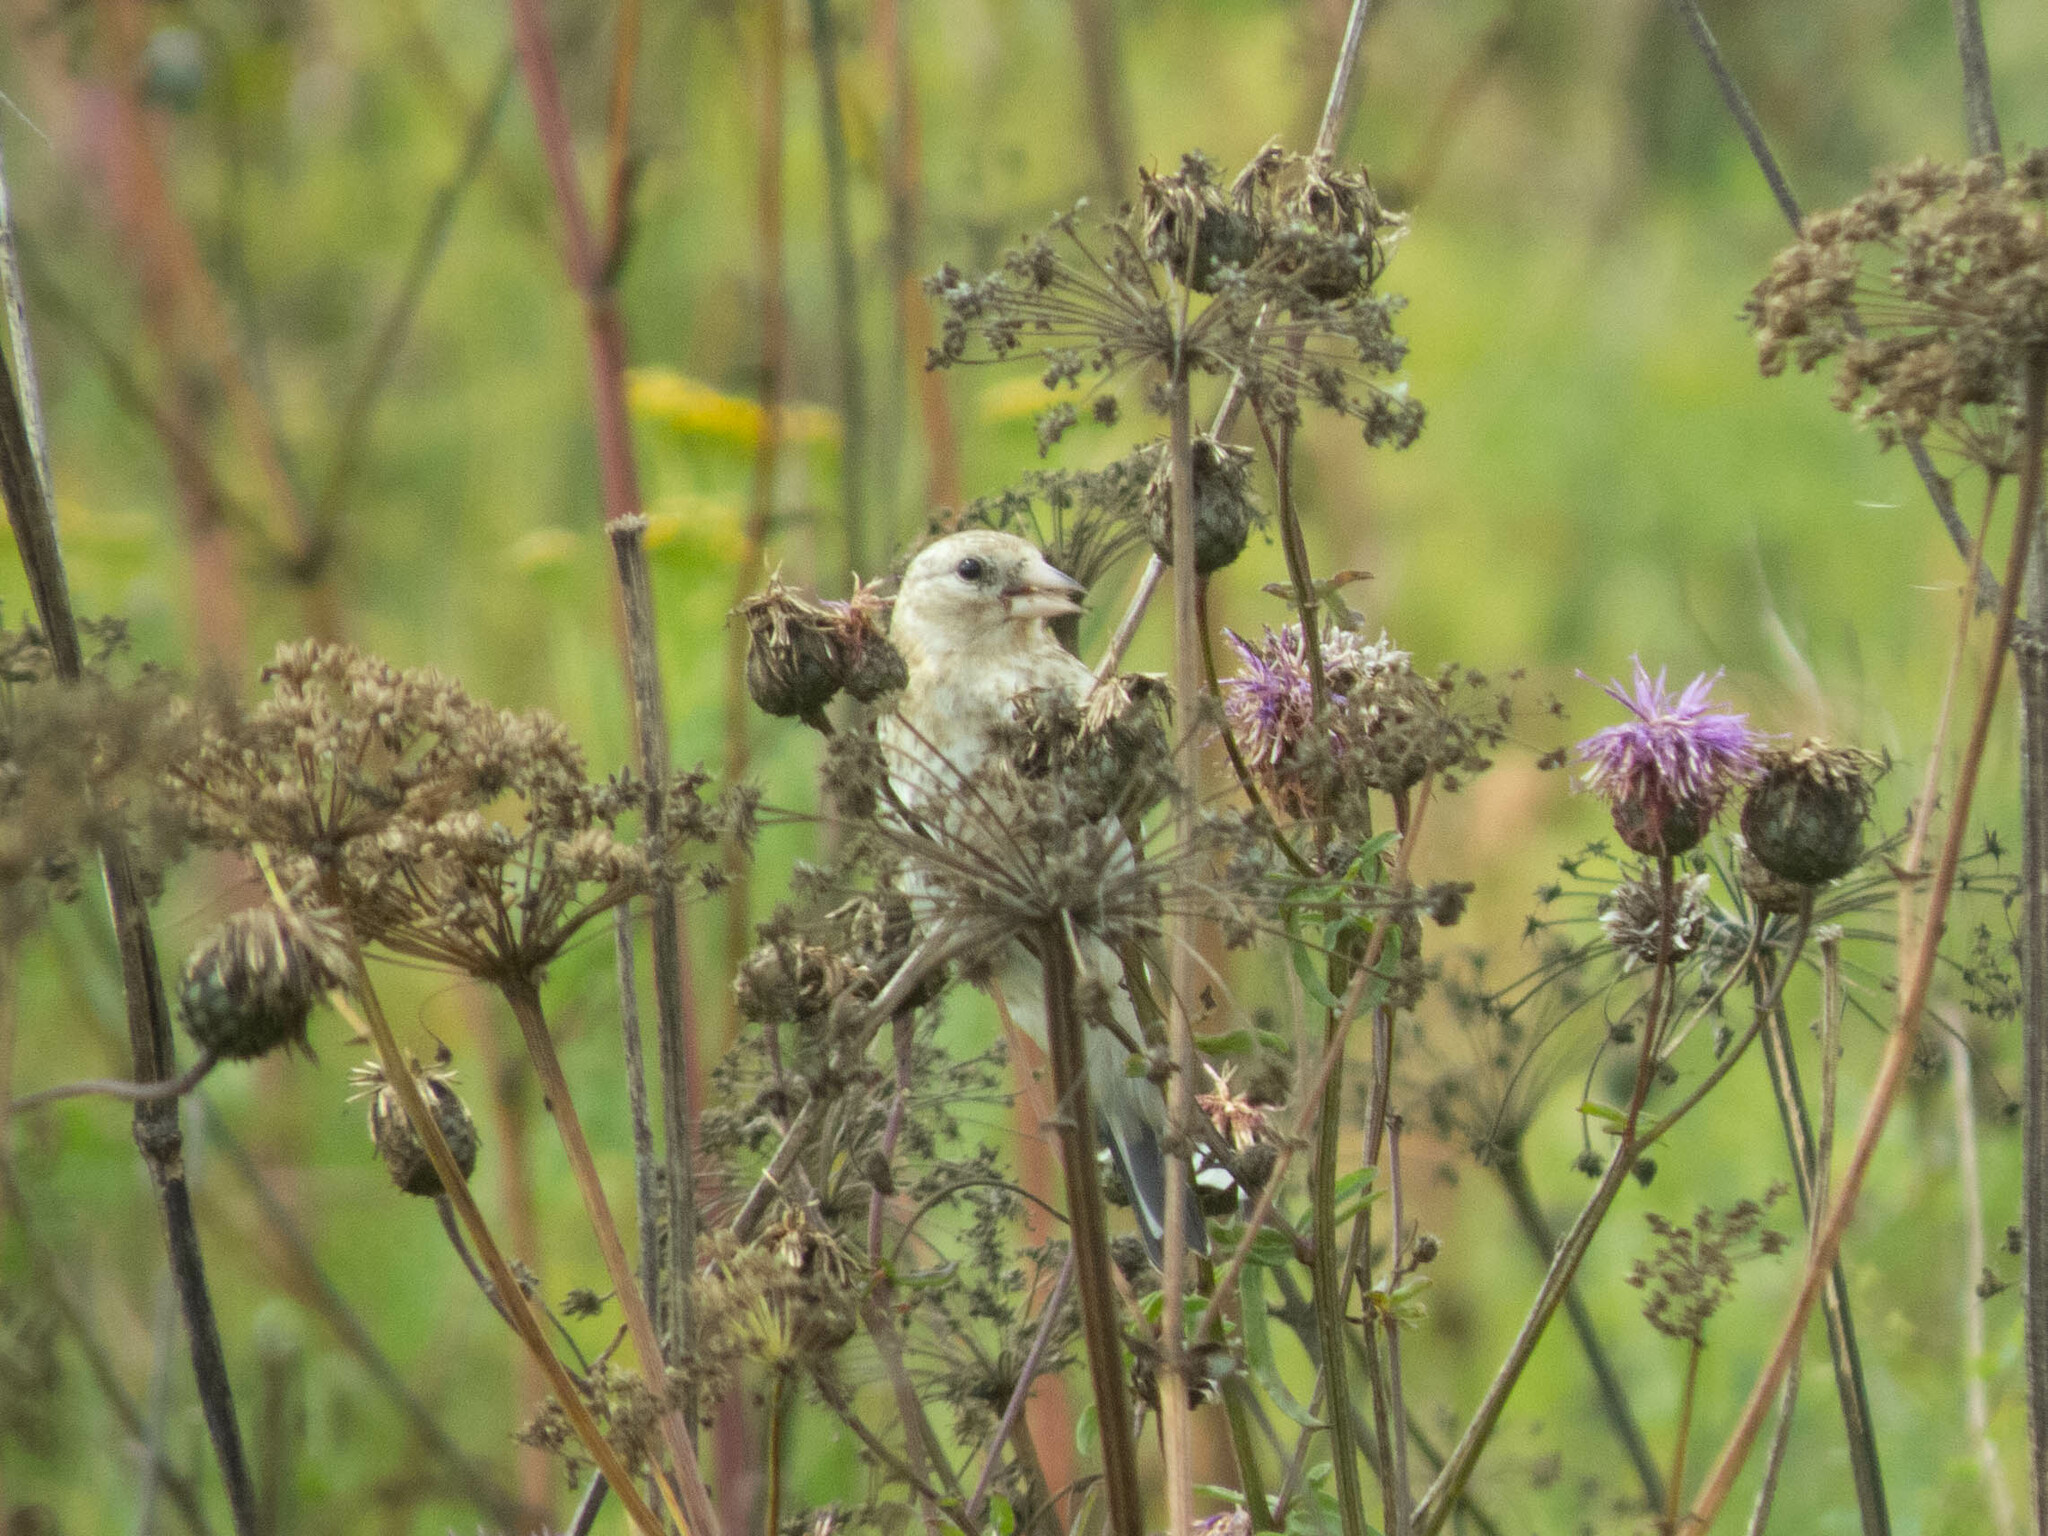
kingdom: Animalia
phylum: Chordata
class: Aves
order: Passeriformes
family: Fringillidae
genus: Carduelis
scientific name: Carduelis carduelis
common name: European goldfinch
